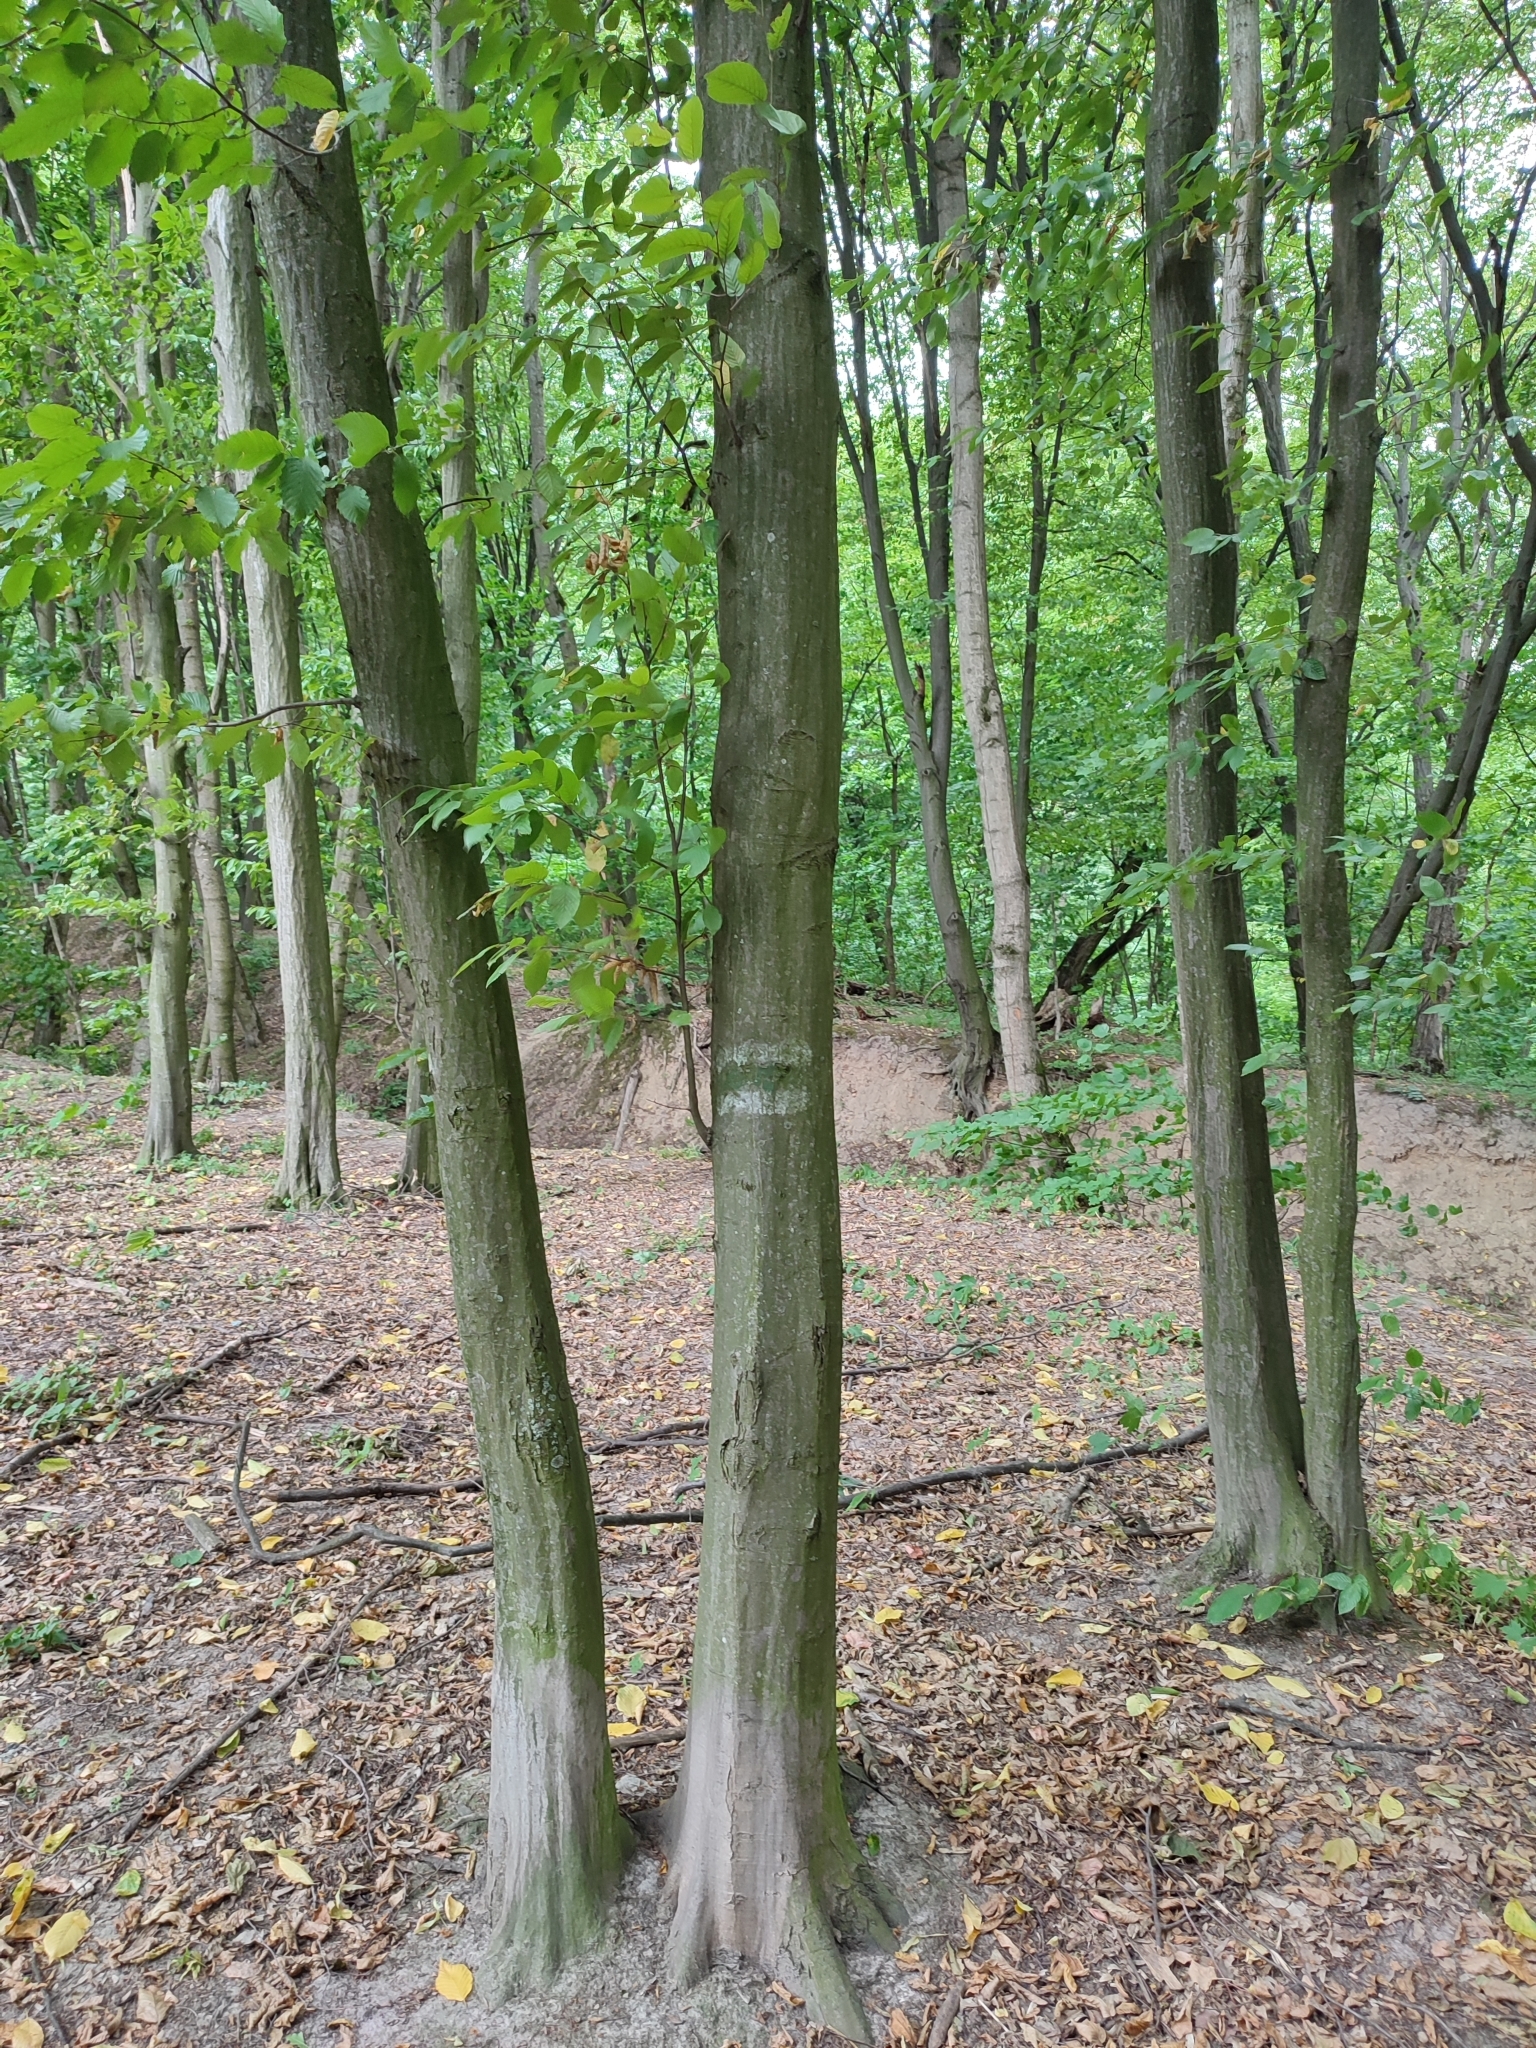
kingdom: Plantae
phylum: Tracheophyta
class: Magnoliopsida
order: Fagales
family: Betulaceae
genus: Carpinus
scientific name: Carpinus betulus
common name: Hornbeam
